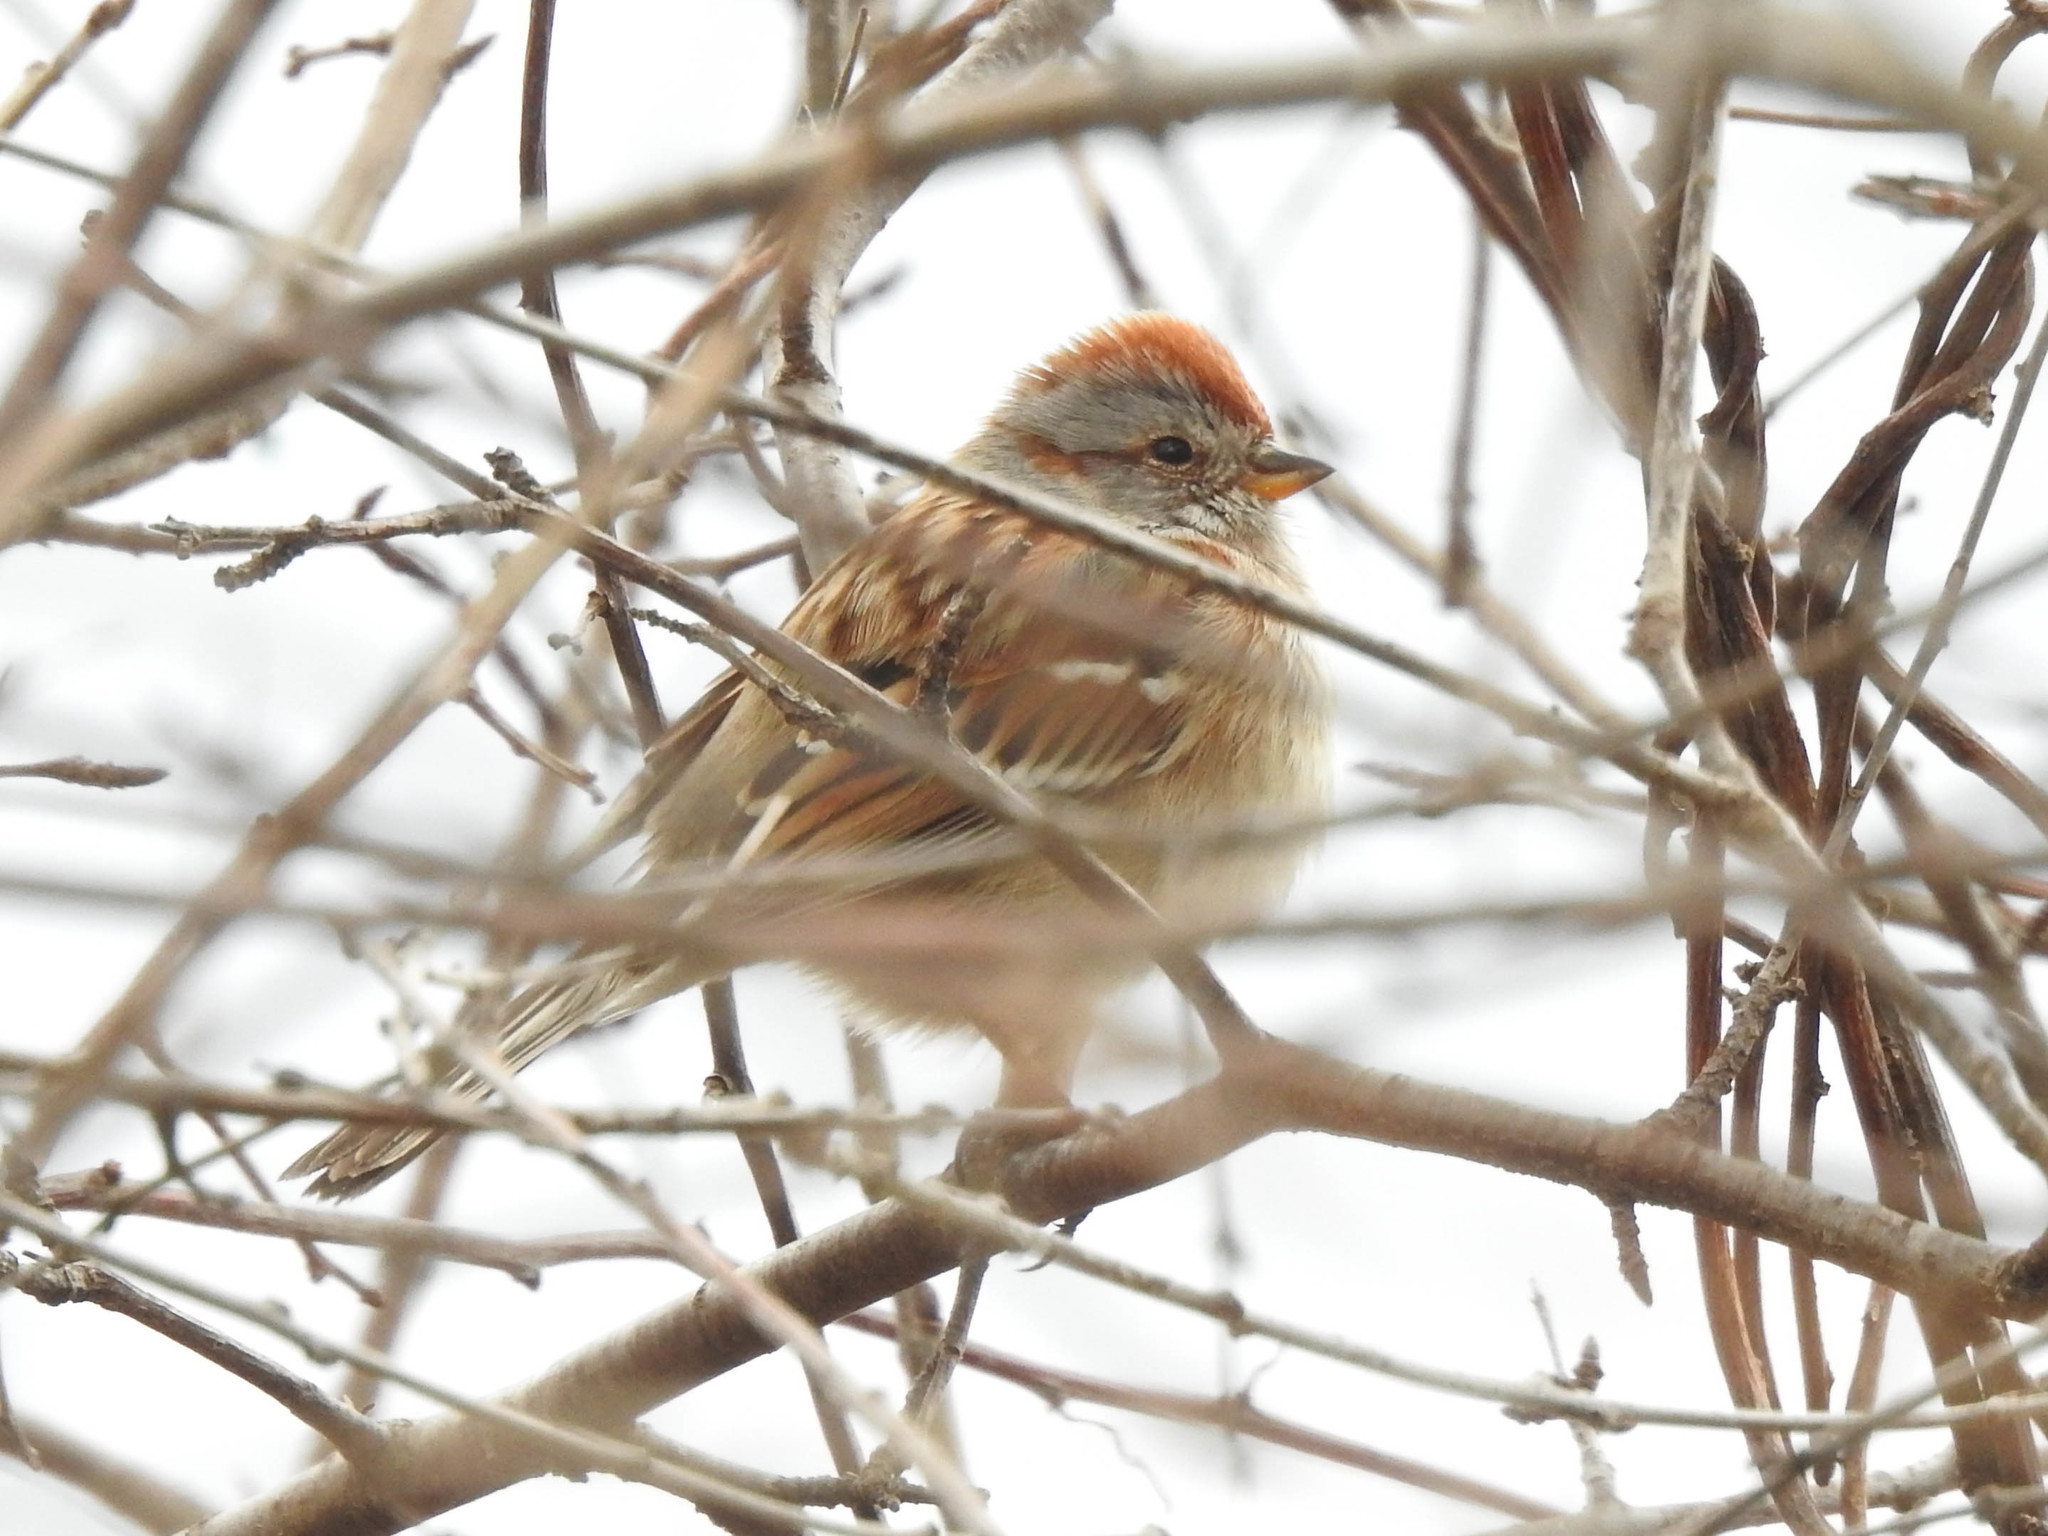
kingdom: Animalia
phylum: Chordata
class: Aves
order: Passeriformes
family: Passerellidae
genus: Spizelloides
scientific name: Spizelloides arborea
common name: American tree sparrow
